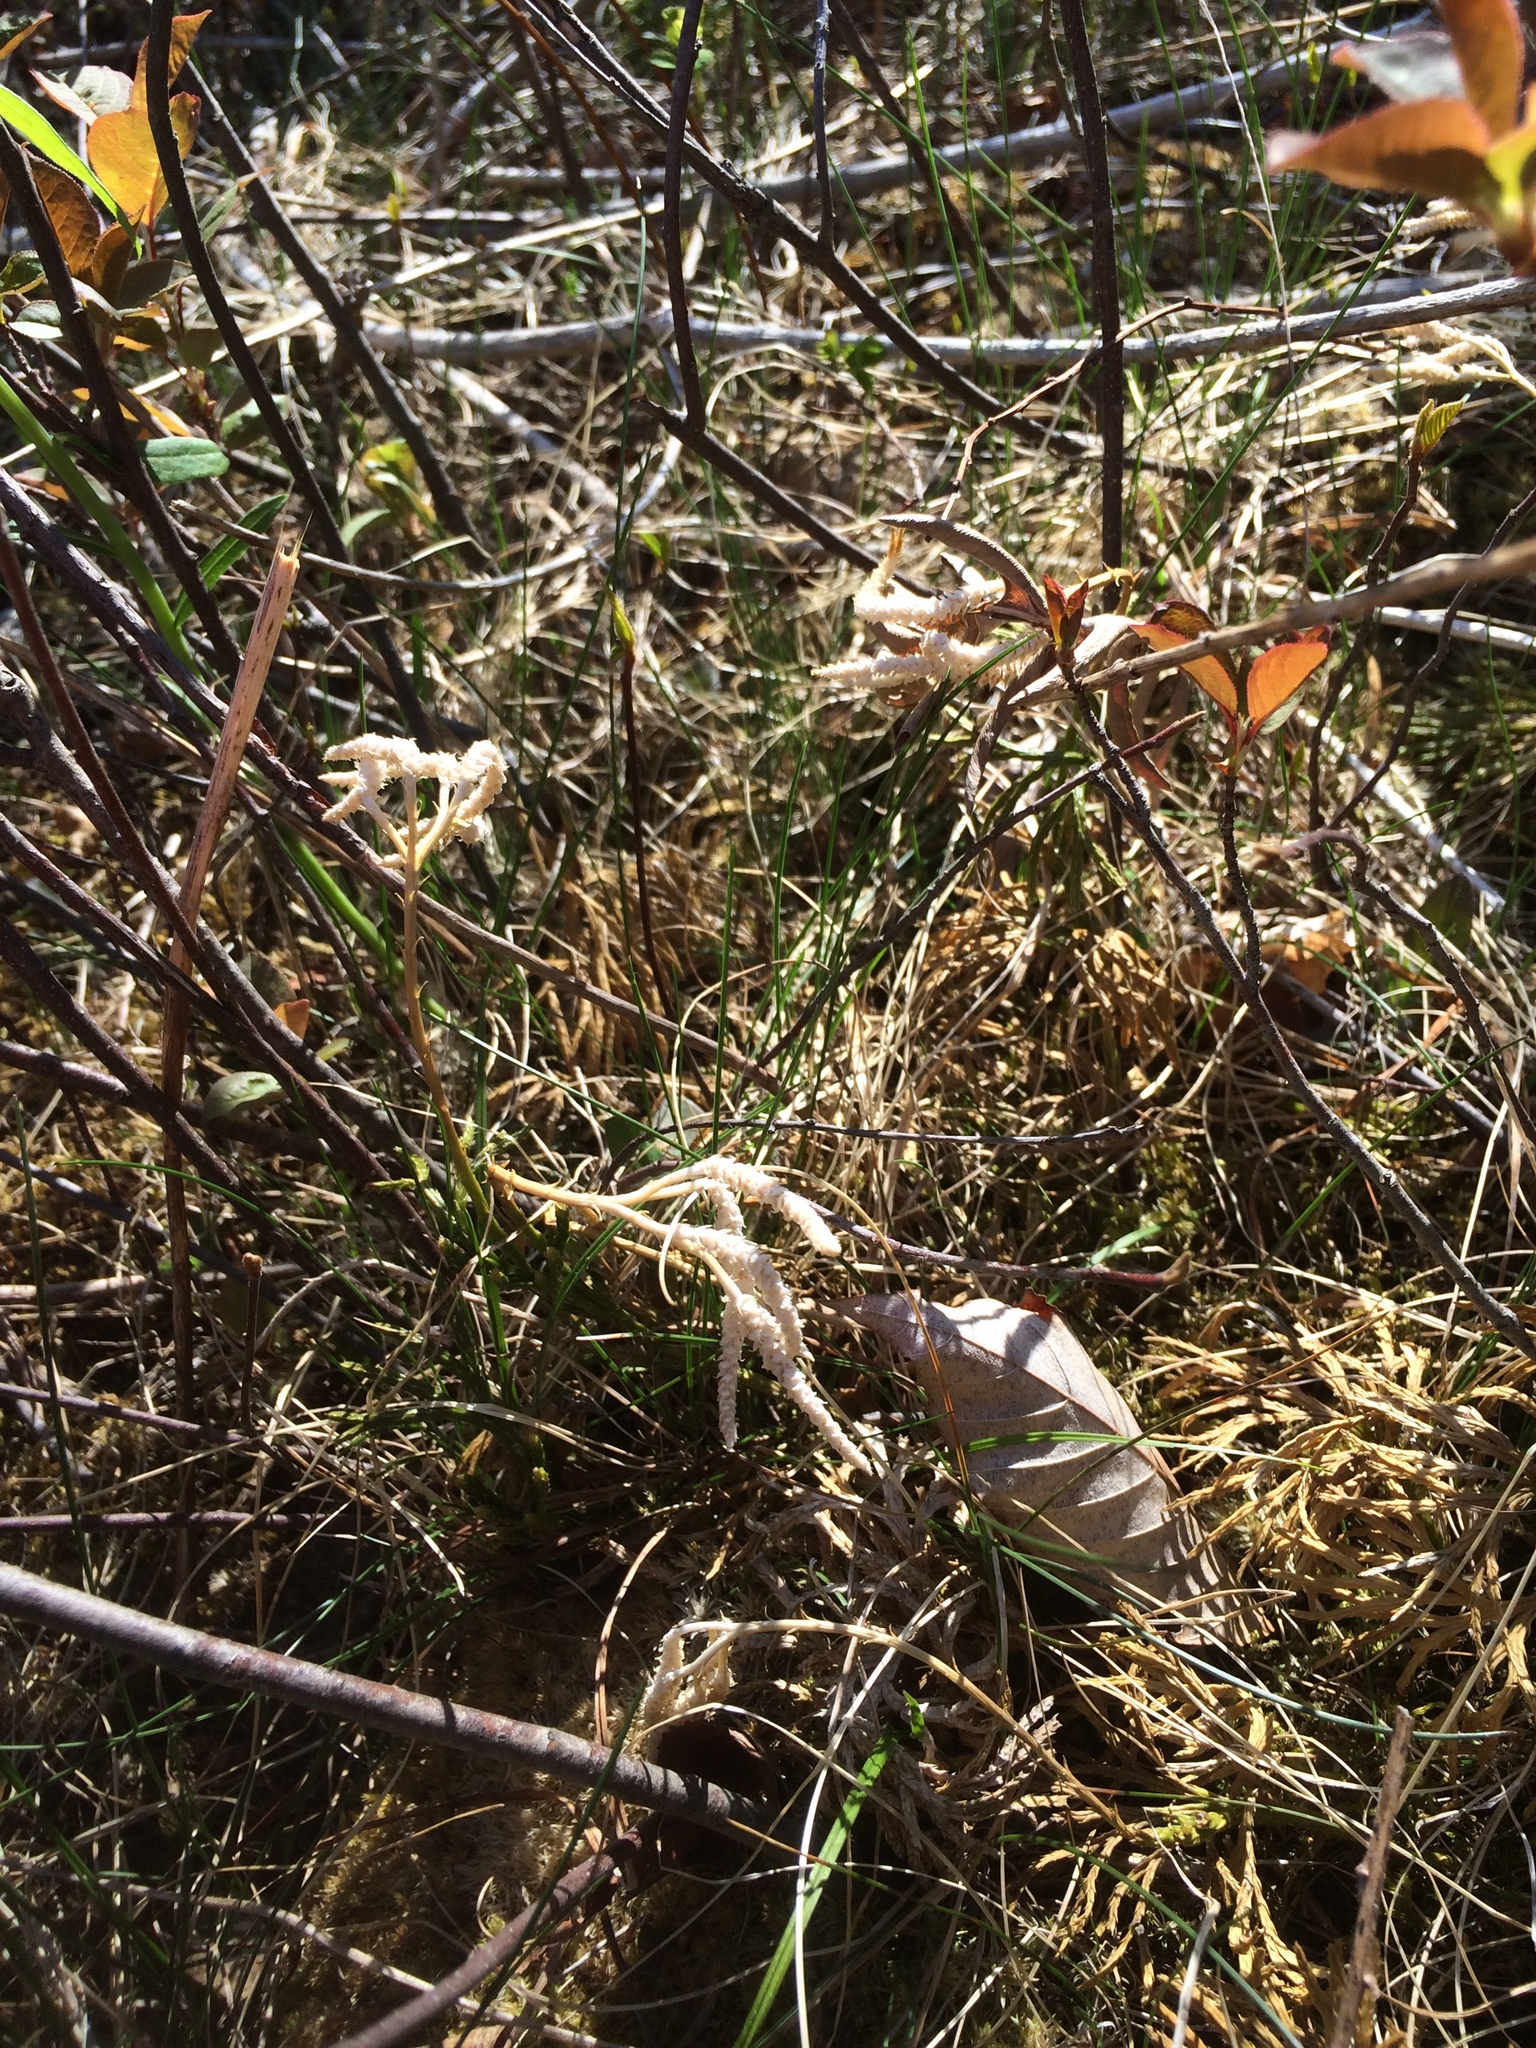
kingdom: Plantae
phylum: Tracheophyta
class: Lycopodiopsida
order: Lycopodiales
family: Lycopodiaceae
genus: Diphasiastrum
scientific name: Diphasiastrum digitatum
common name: Southern running-pine
